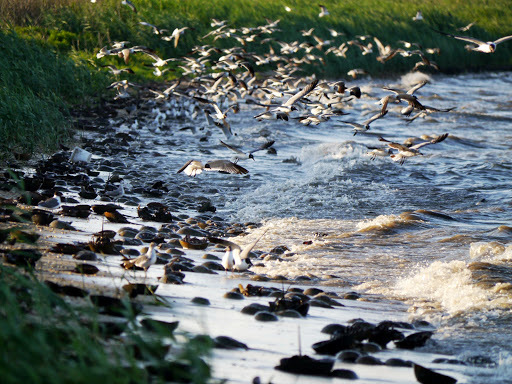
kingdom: Animalia
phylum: Chordata
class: Aves
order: Charadriiformes
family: Laridae
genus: Leucophaeus
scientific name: Leucophaeus atricilla
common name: Laughing gull
